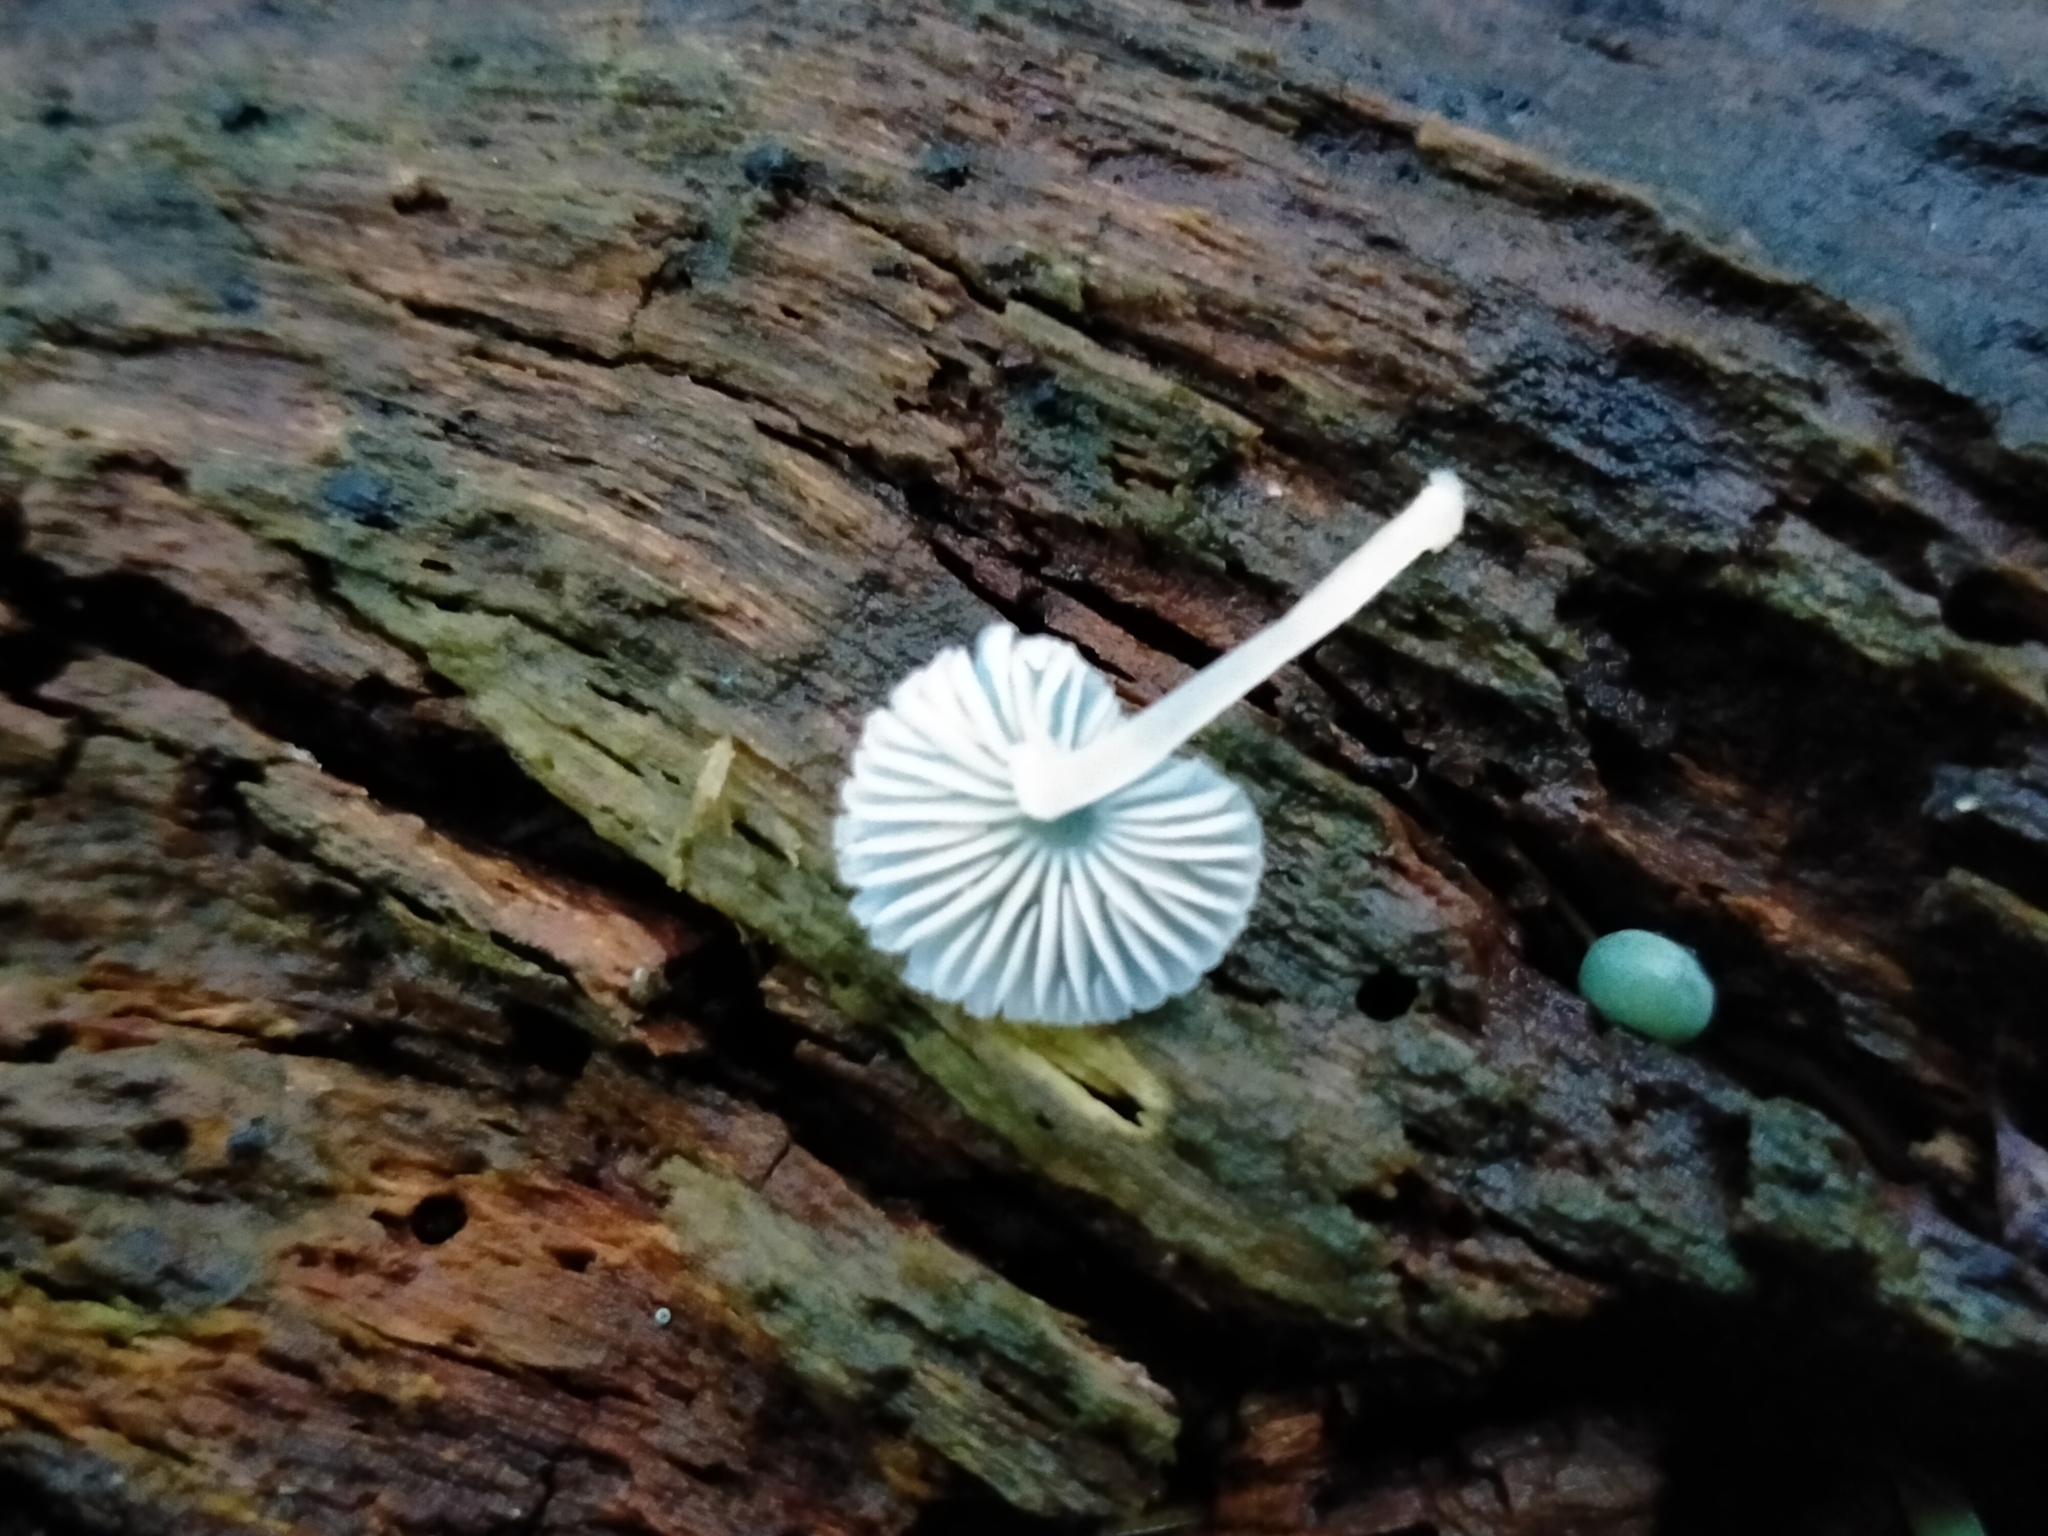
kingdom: Fungi
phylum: Basidiomycota
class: Agaricomycetes
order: Agaricales
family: Mycenaceae
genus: Mycena
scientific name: Mycena interrupta
